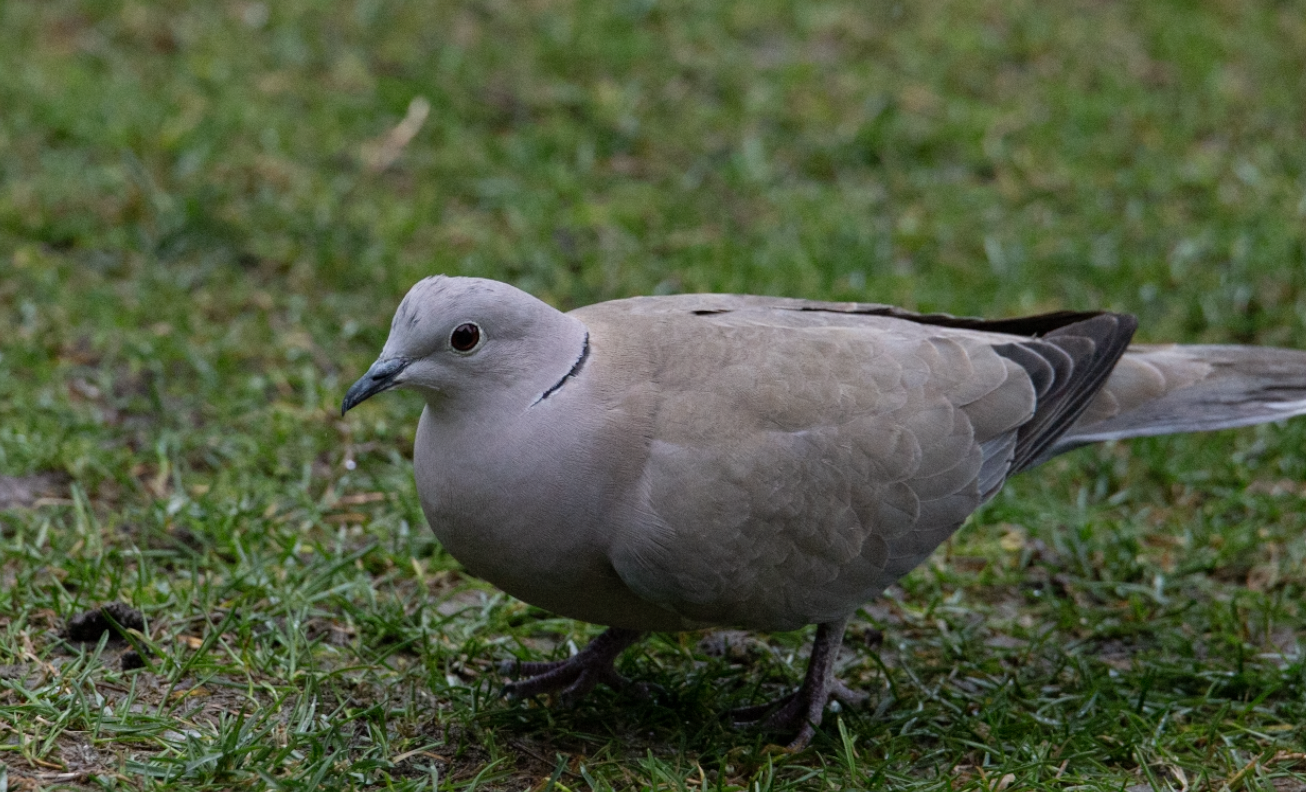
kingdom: Animalia
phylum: Chordata
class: Aves
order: Columbiformes
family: Columbidae
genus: Streptopelia
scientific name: Streptopelia decaocto
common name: Eurasian collared dove
